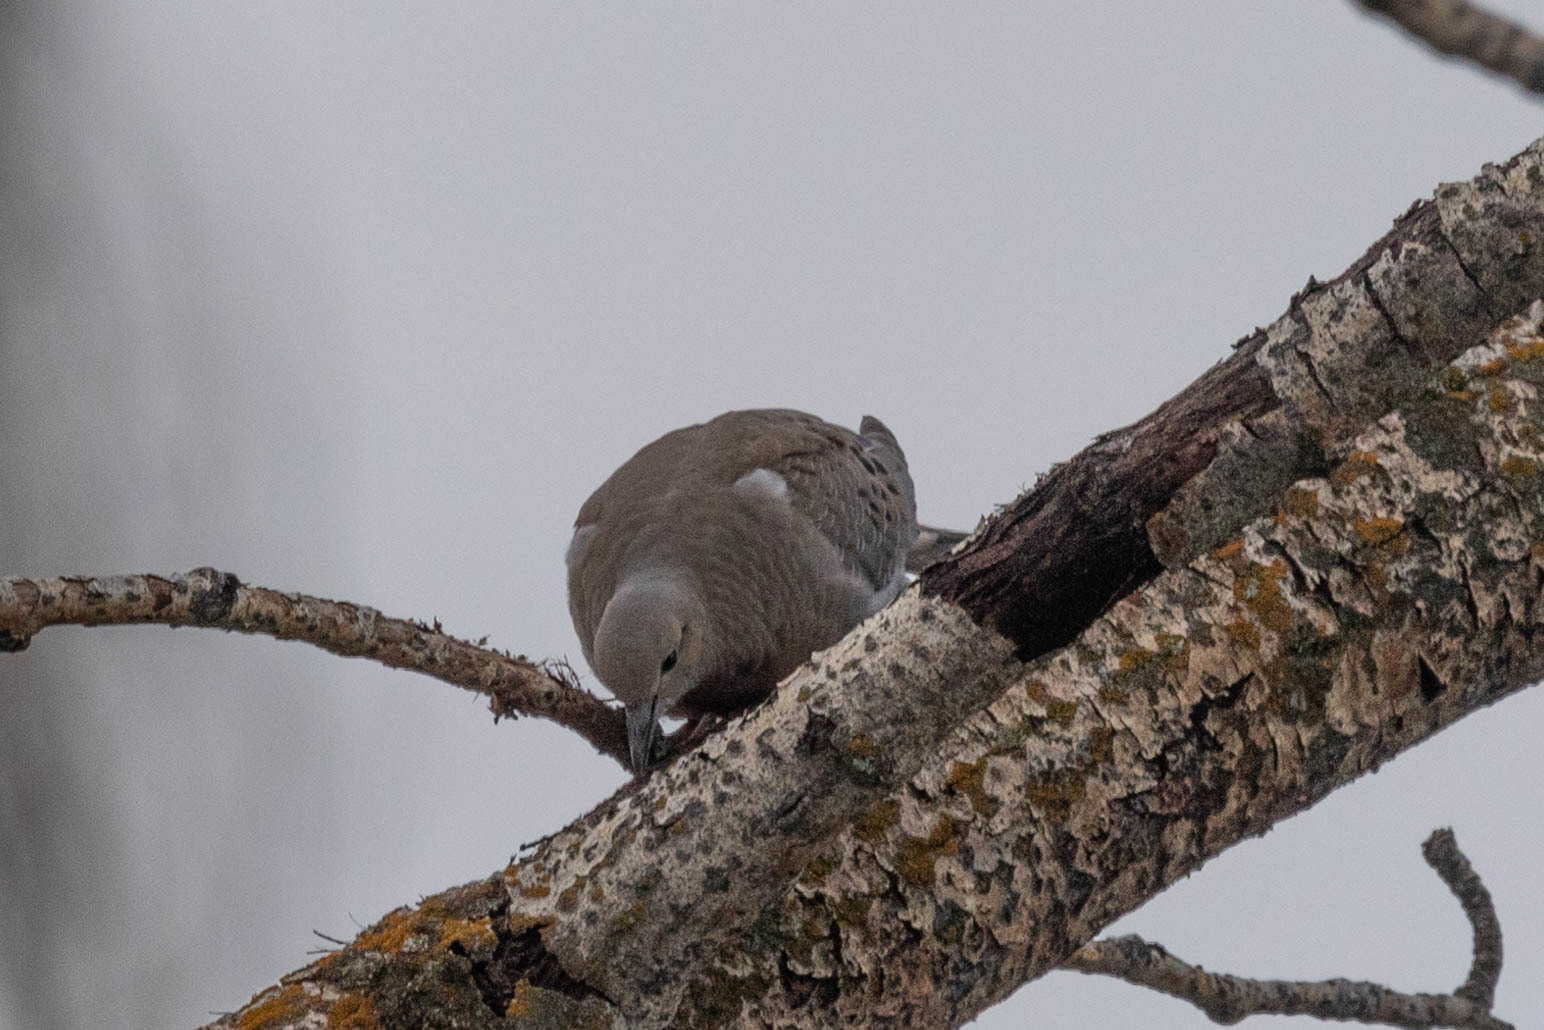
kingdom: Animalia
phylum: Chordata
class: Aves
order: Columbiformes
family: Columbidae
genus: Zenaida
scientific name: Zenaida macroura
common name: Mourning dove
